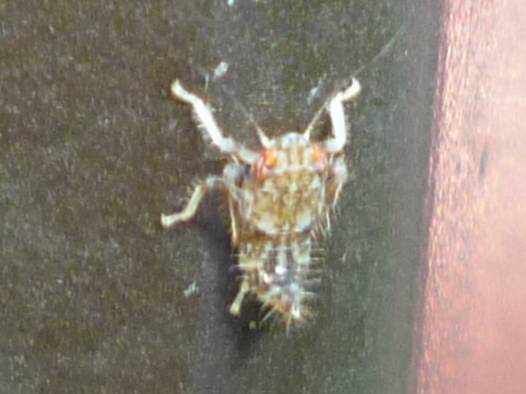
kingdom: Animalia
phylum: Arthropoda
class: Insecta
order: Hemiptera
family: Cicadellidae
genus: Orientus
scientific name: Orientus ishidae
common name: Japanese leafhopper
